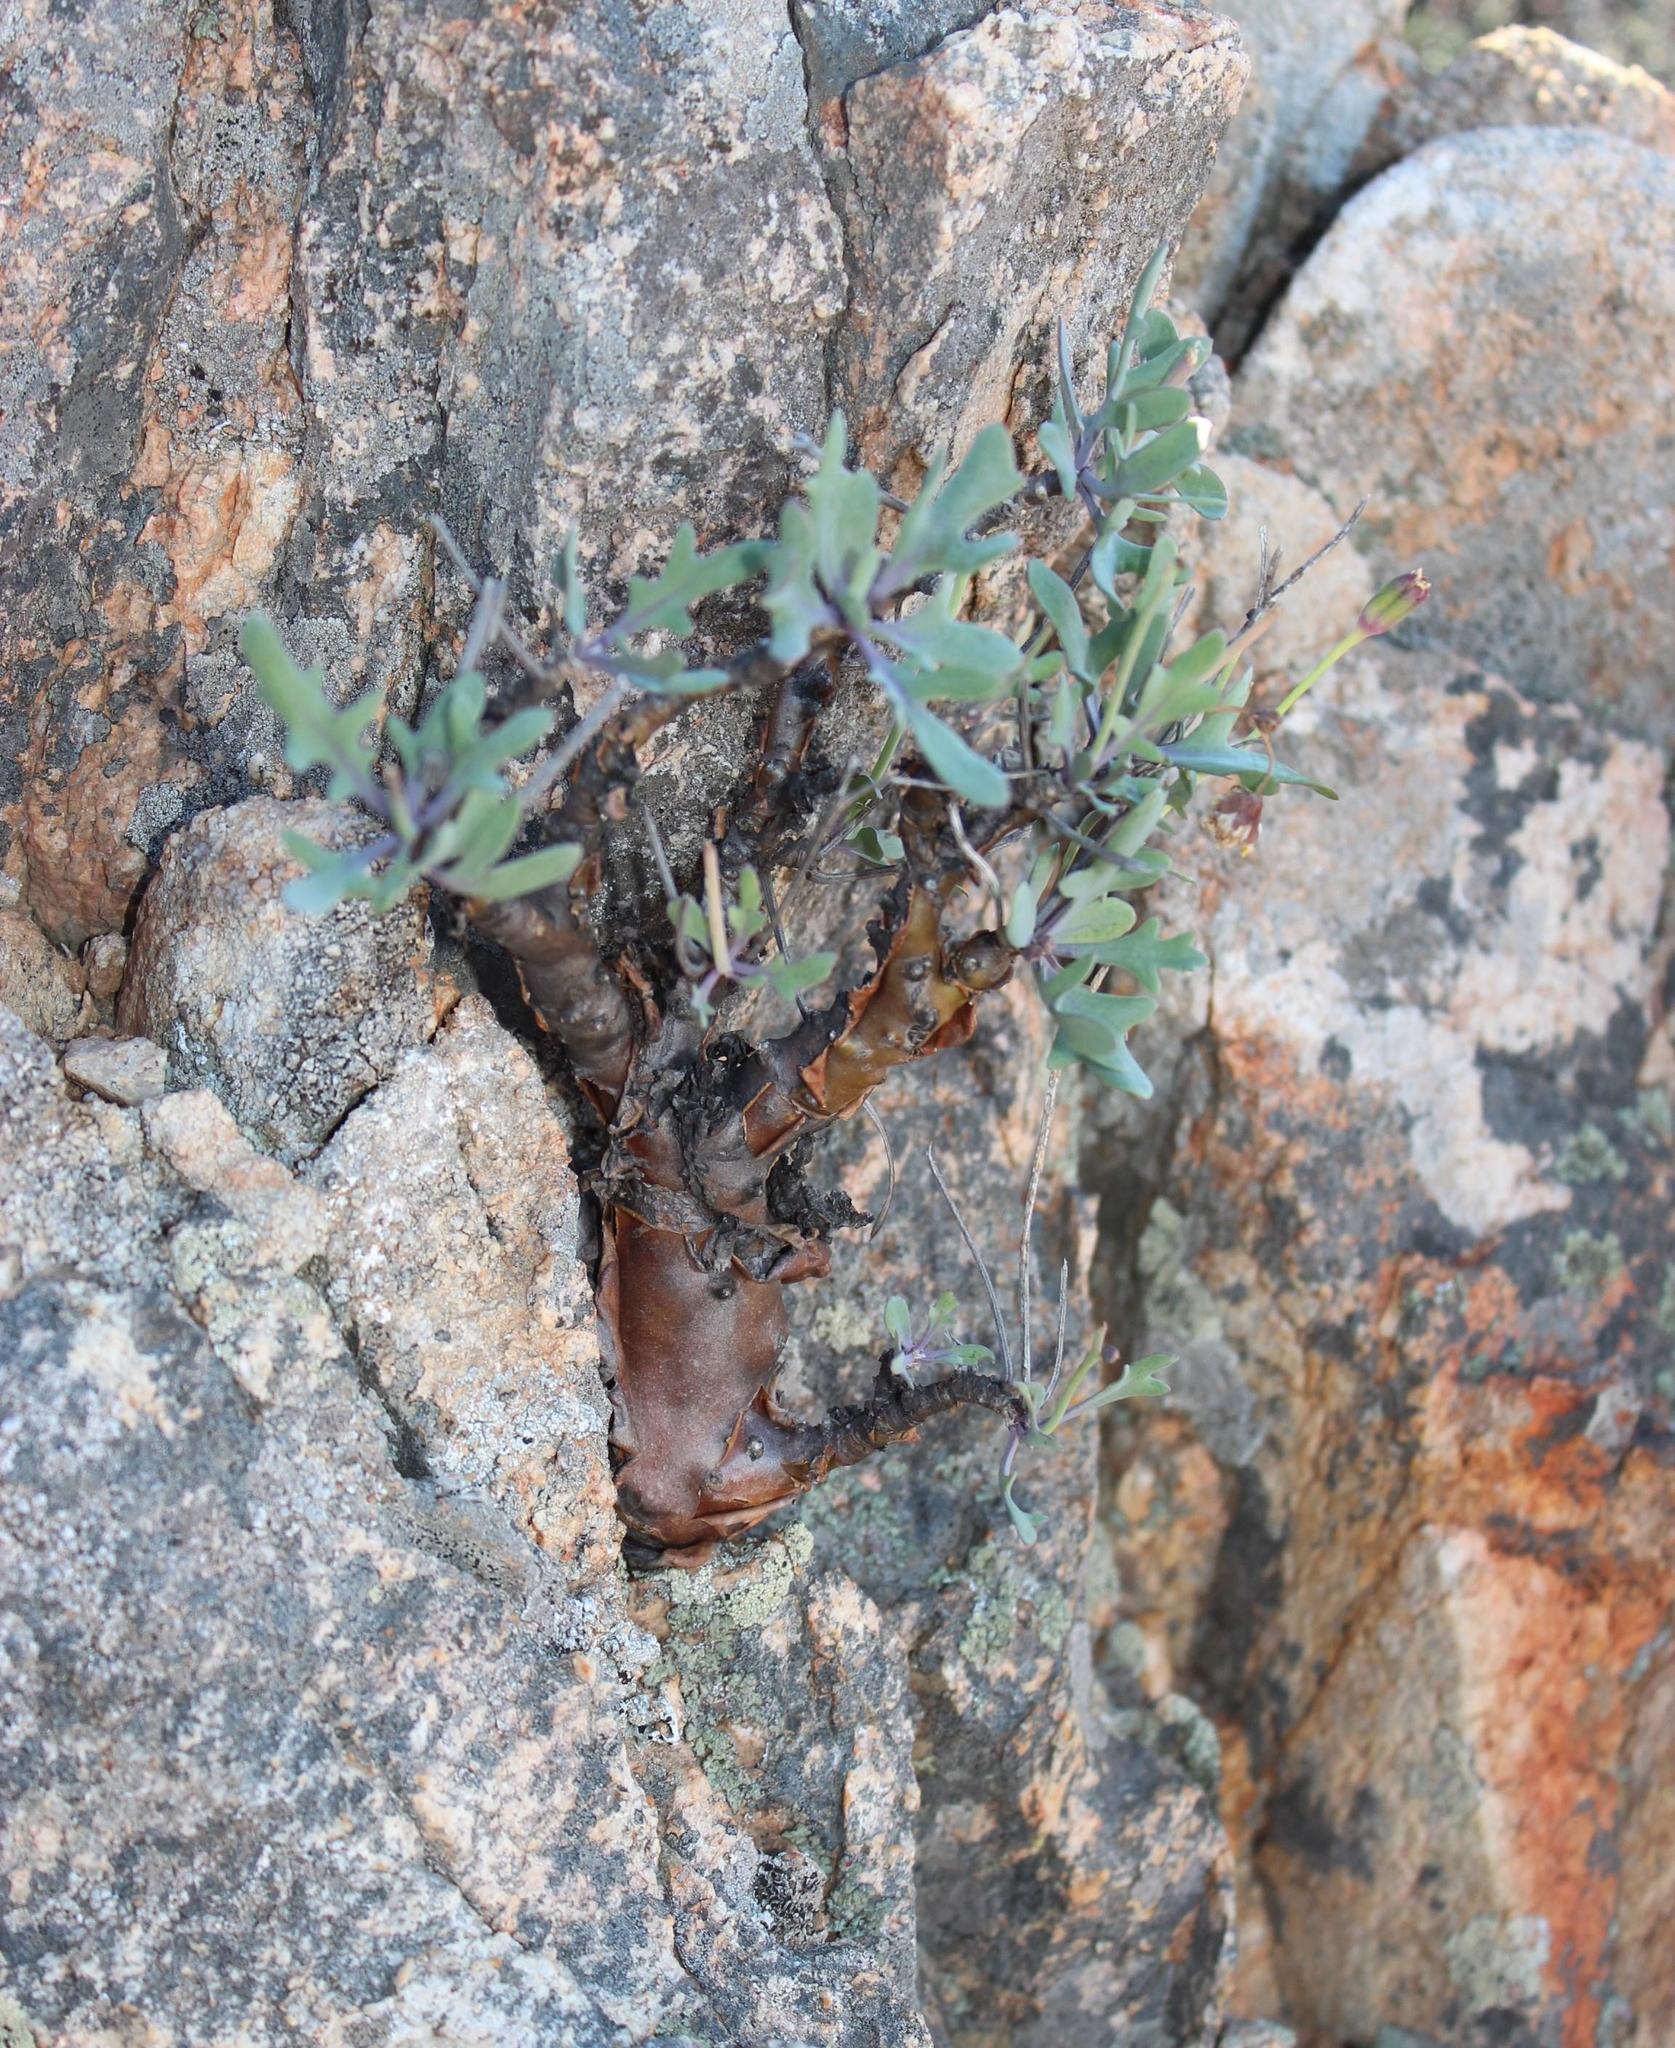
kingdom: Plantae
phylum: Tracheophyta
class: Magnoliopsida
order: Asterales
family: Asteraceae
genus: Othonna
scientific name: Othonna graveolens
